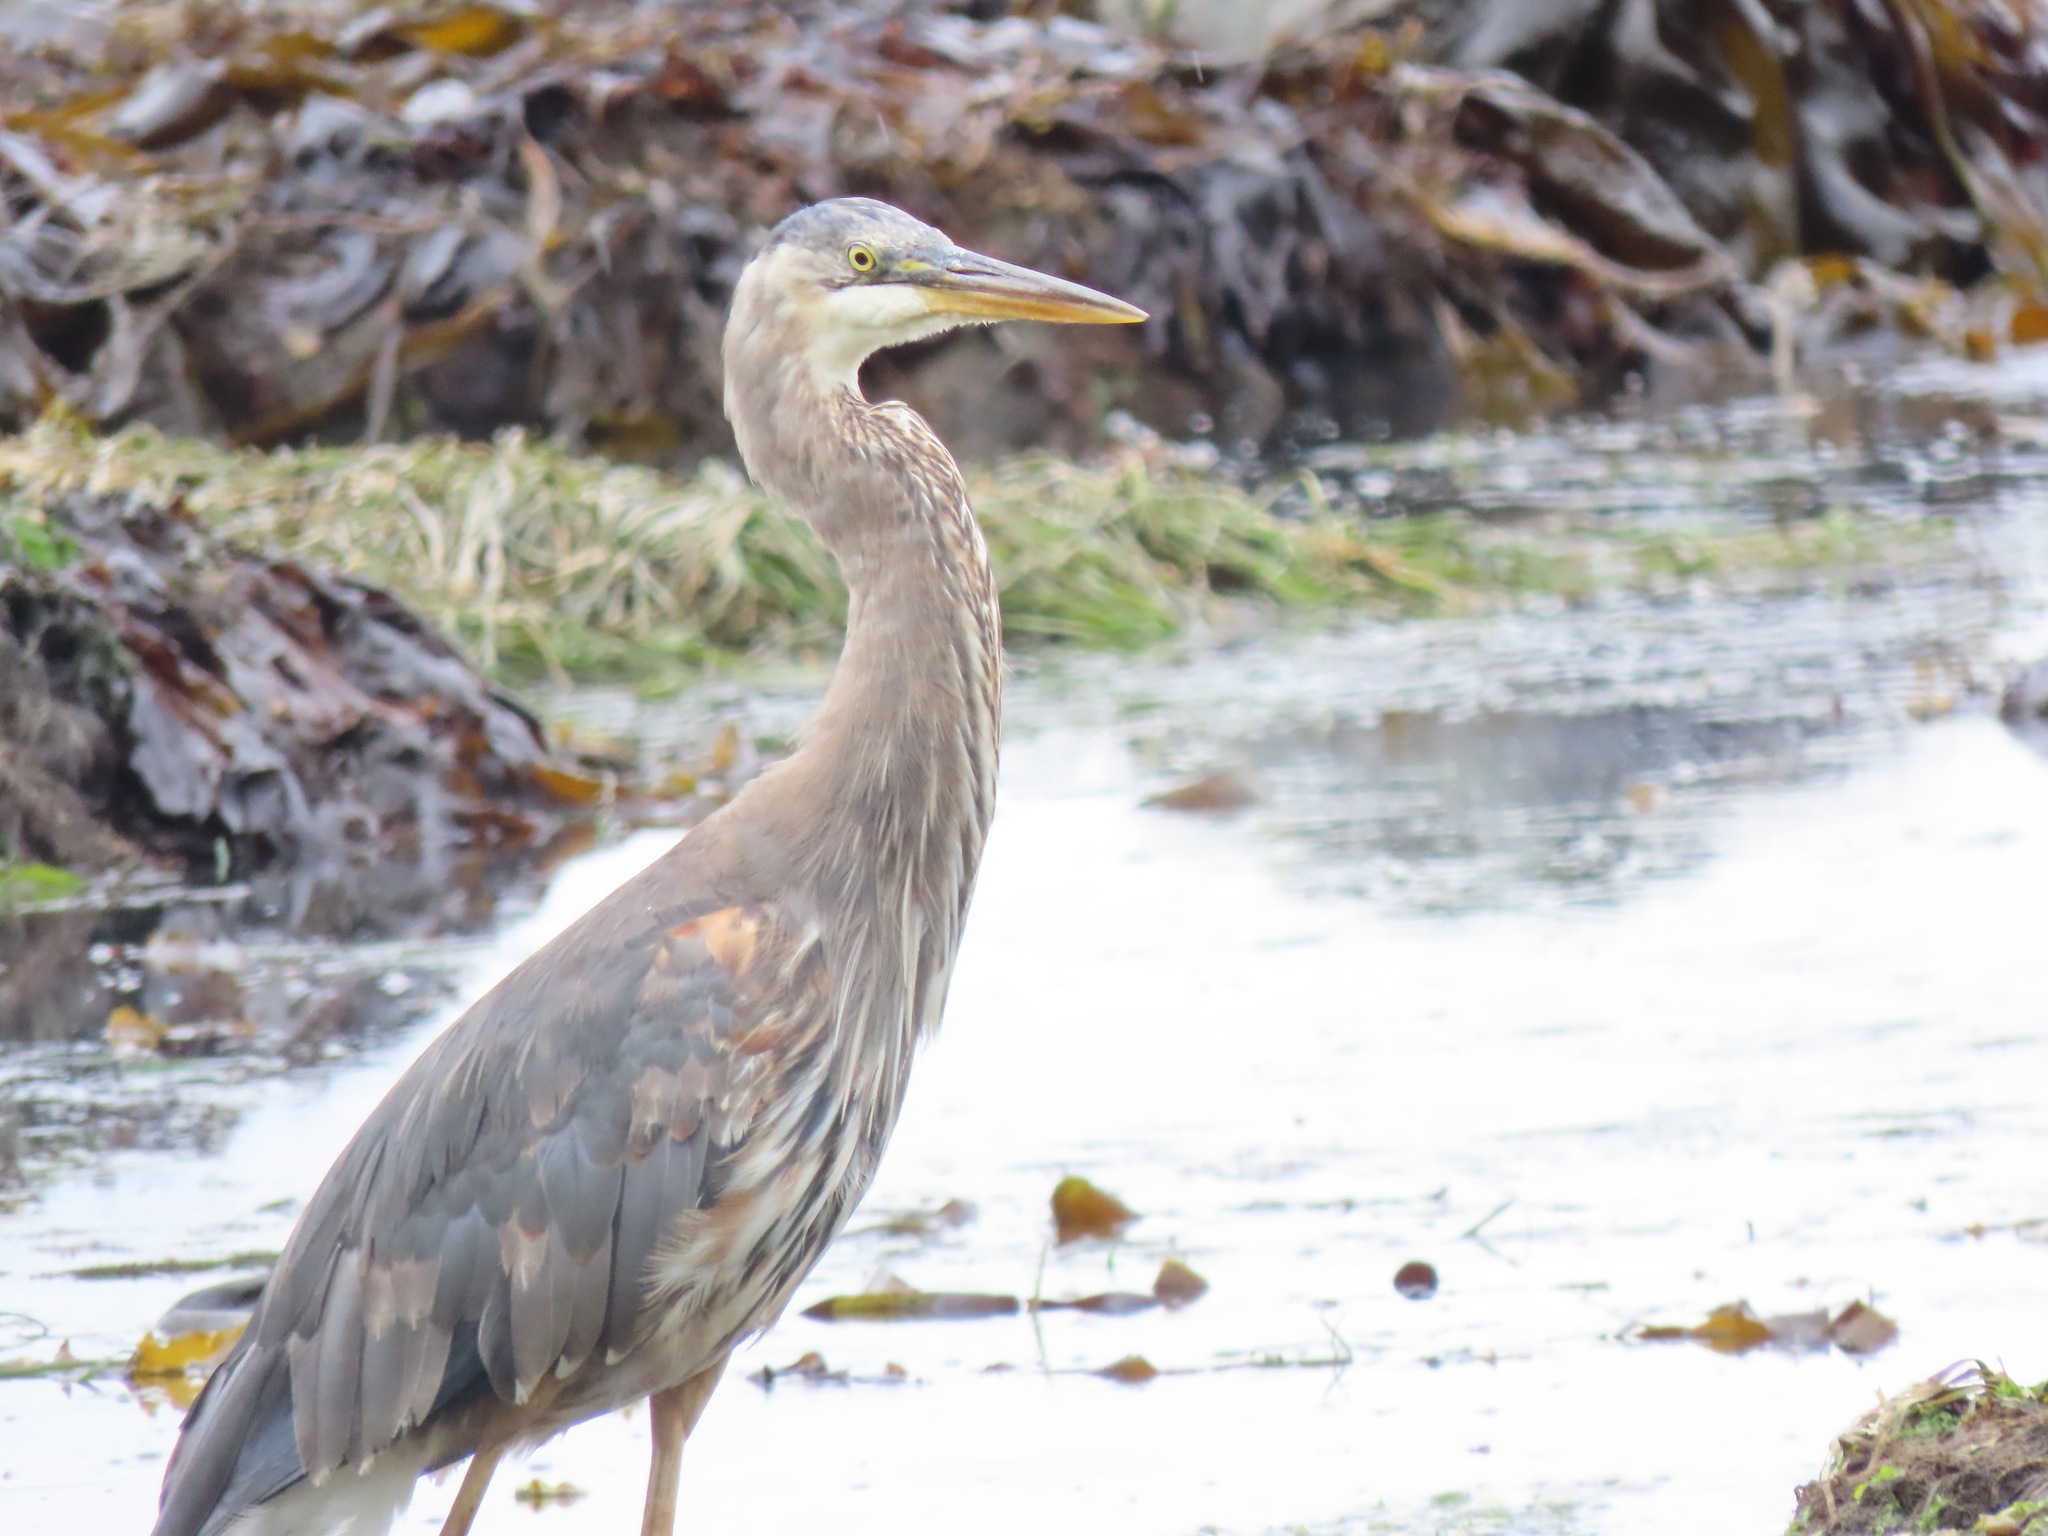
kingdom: Animalia
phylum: Chordata
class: Aves
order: Pelecaniformes
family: Ardeidae
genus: Ardea
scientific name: Ardea herodias
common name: Great blue heron
